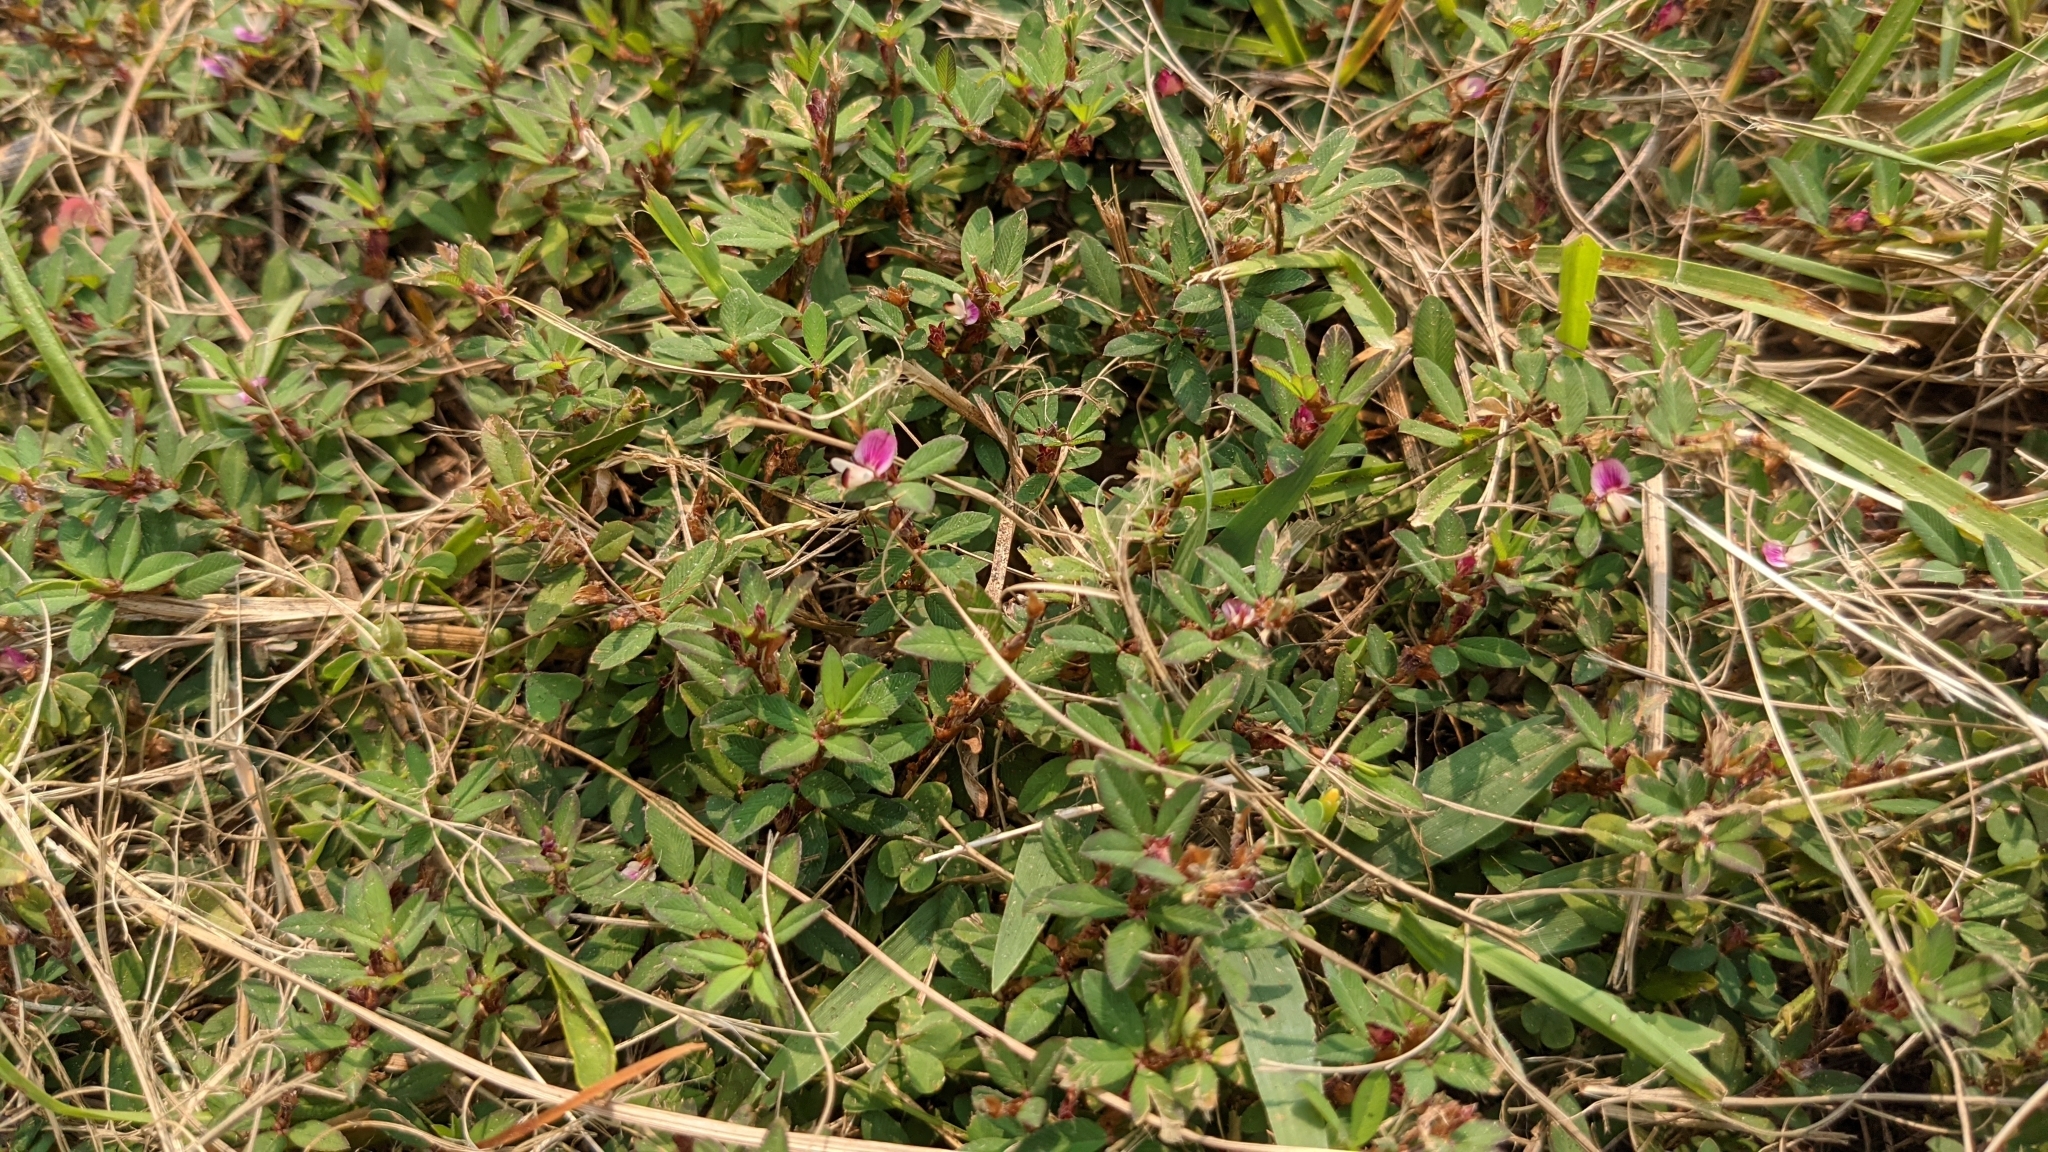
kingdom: Plantae
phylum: Tracheophyta
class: Magnoliopsida
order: Fabales
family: Fabaceae
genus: Kummerowia
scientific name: Kummerowia striata
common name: Japanese clover
